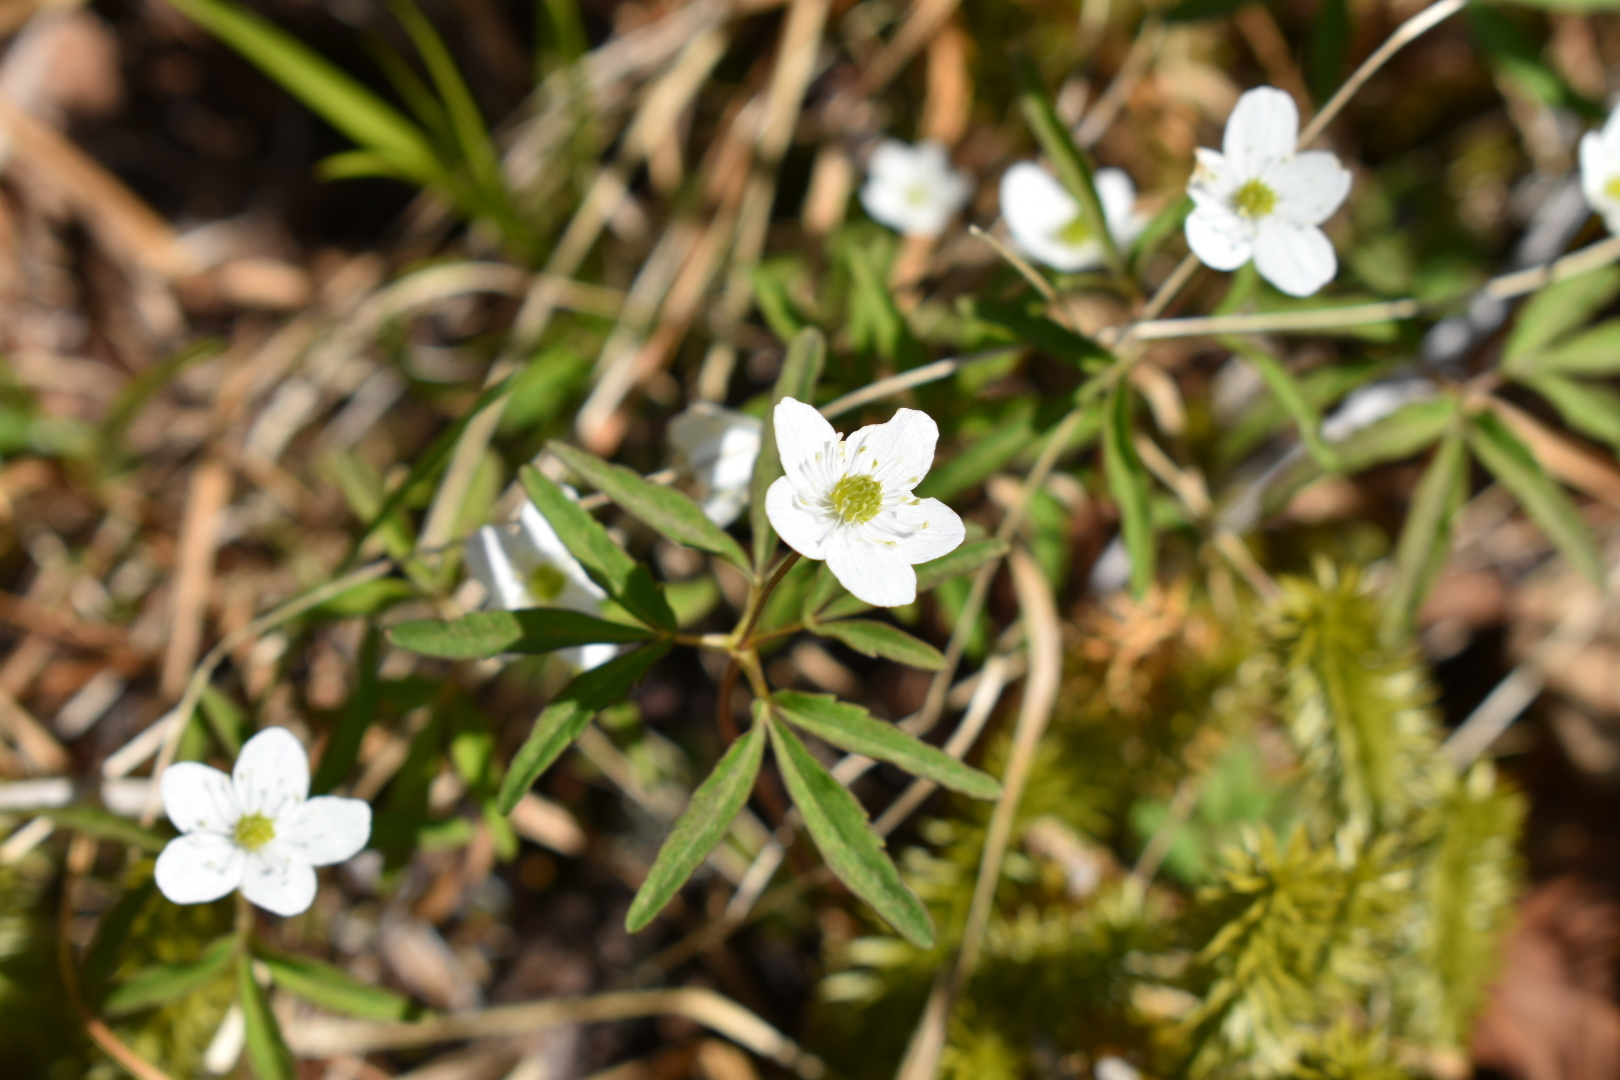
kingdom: Plantae
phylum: Tracheophyta
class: Magnoliopsida
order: Ranunculales
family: Ranunculaceae
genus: Anemone
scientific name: Anemone debilis
